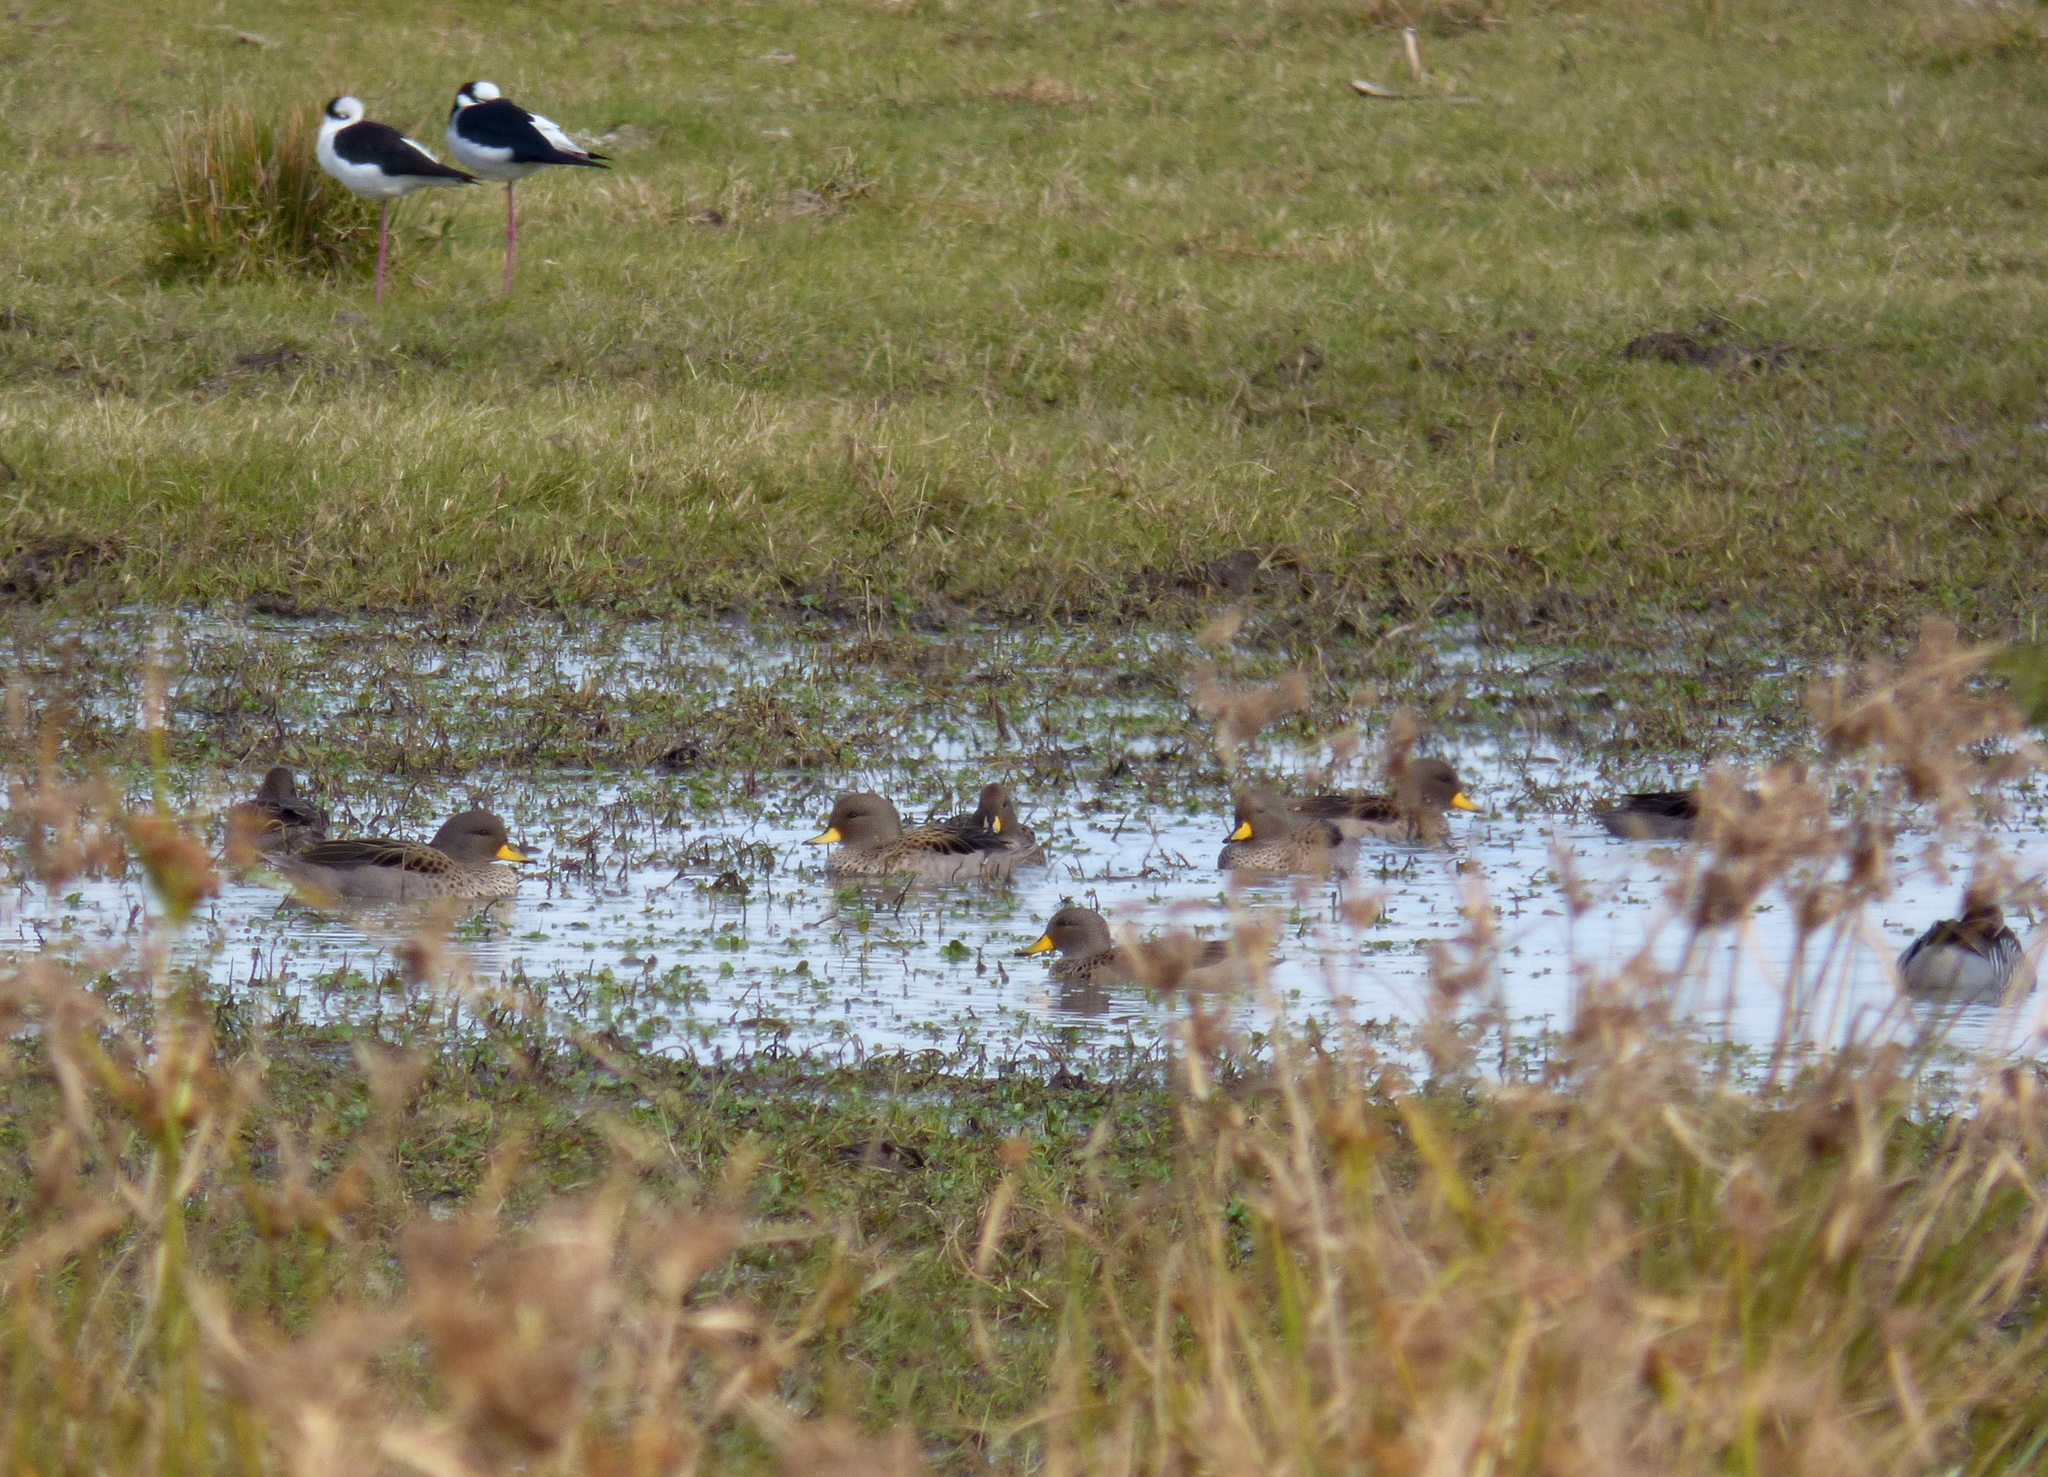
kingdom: Animalia
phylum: Chordata
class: Aves
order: Anseriformes
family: Anatidae
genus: Anas
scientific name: Anas flavirostris
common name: Yellow-billed teal
